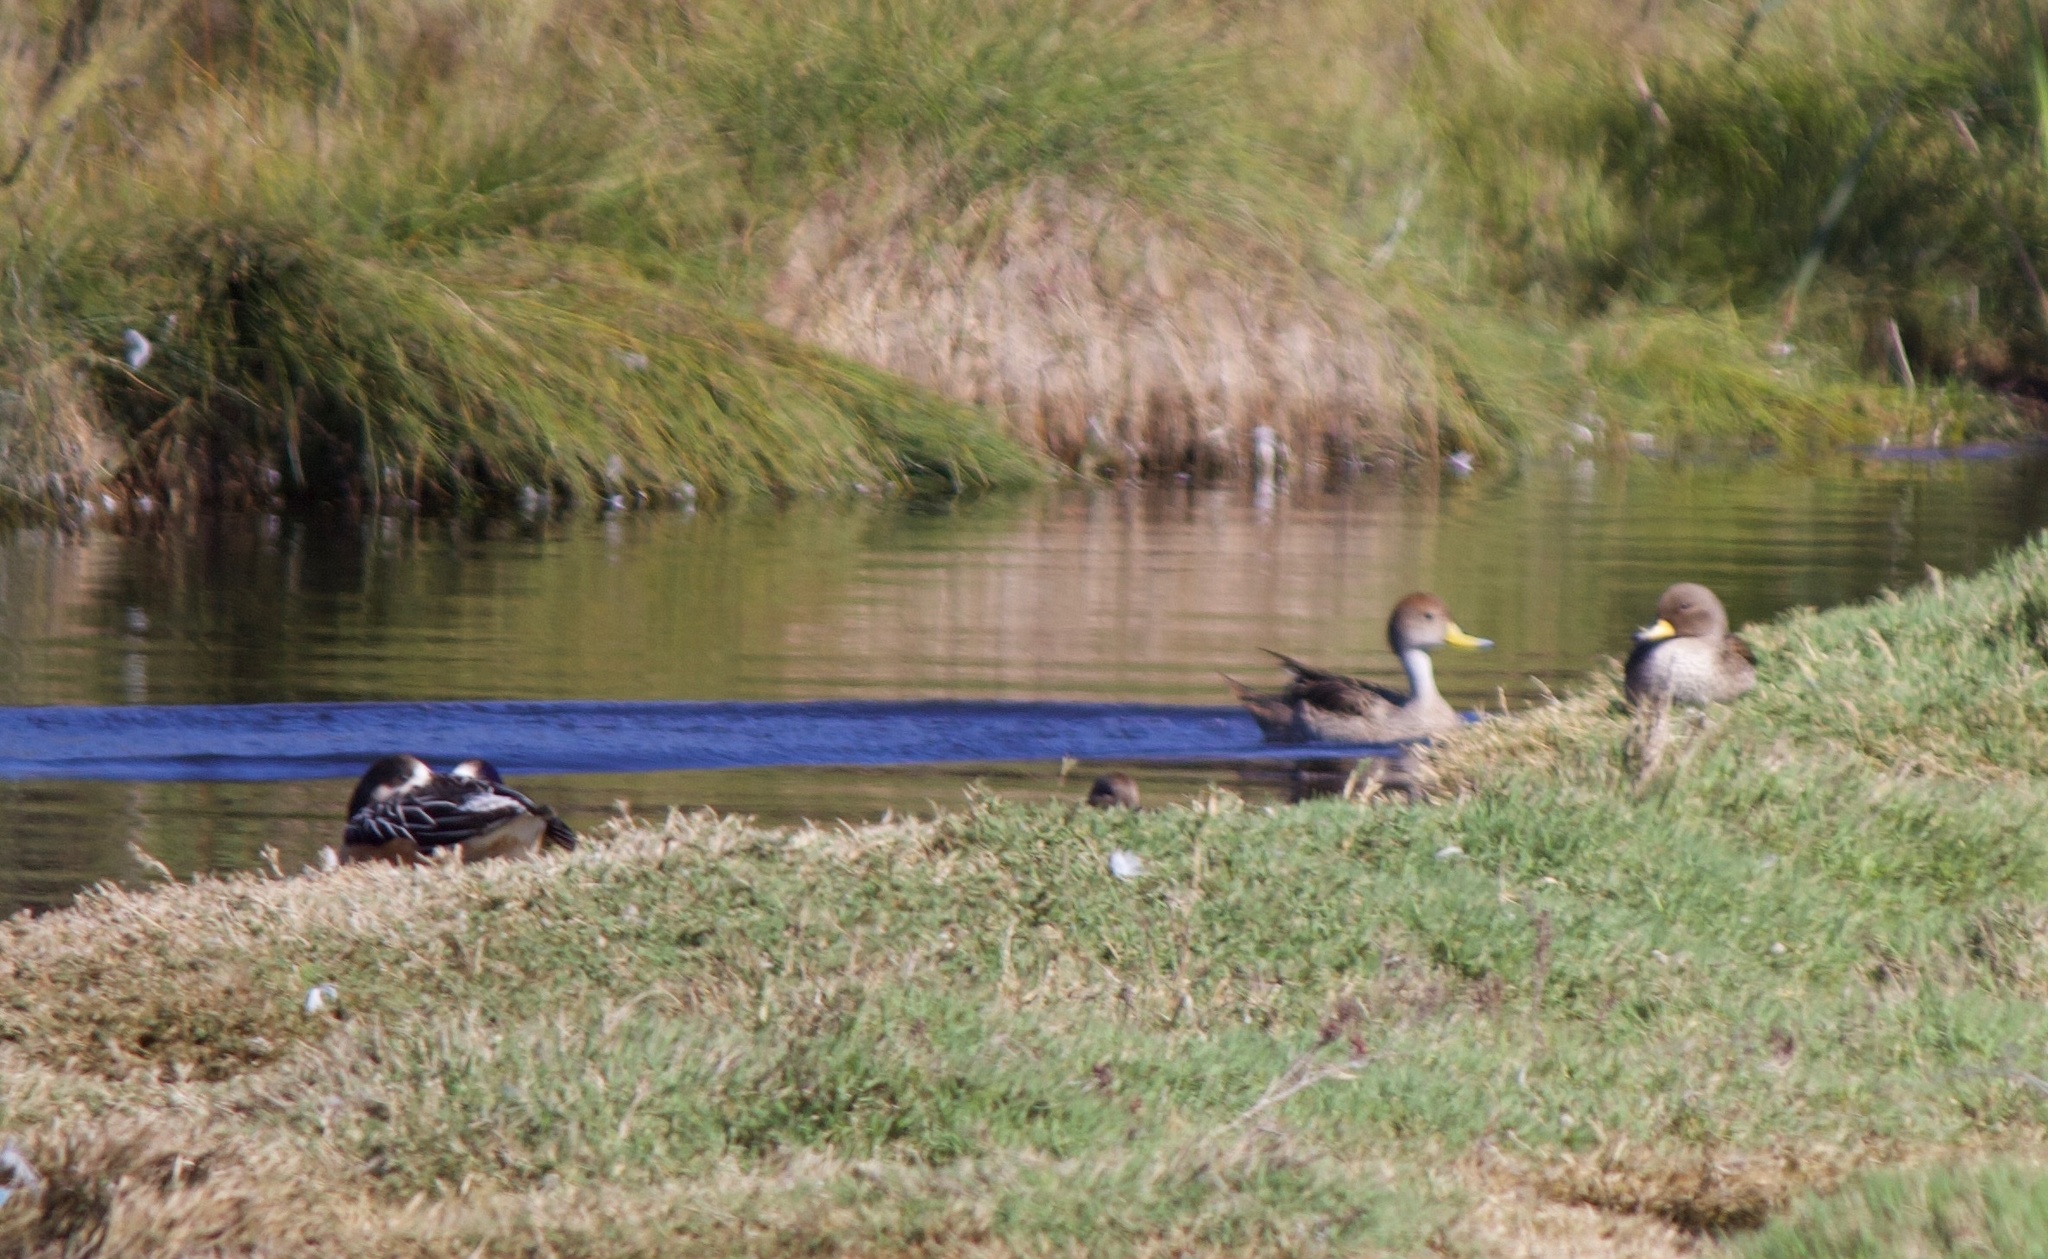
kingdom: Animalia
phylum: Chordata
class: Aves
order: Anseriformes
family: Anatidae
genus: Mareca
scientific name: Mareca sibilatrix
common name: Chiloe wigeon
